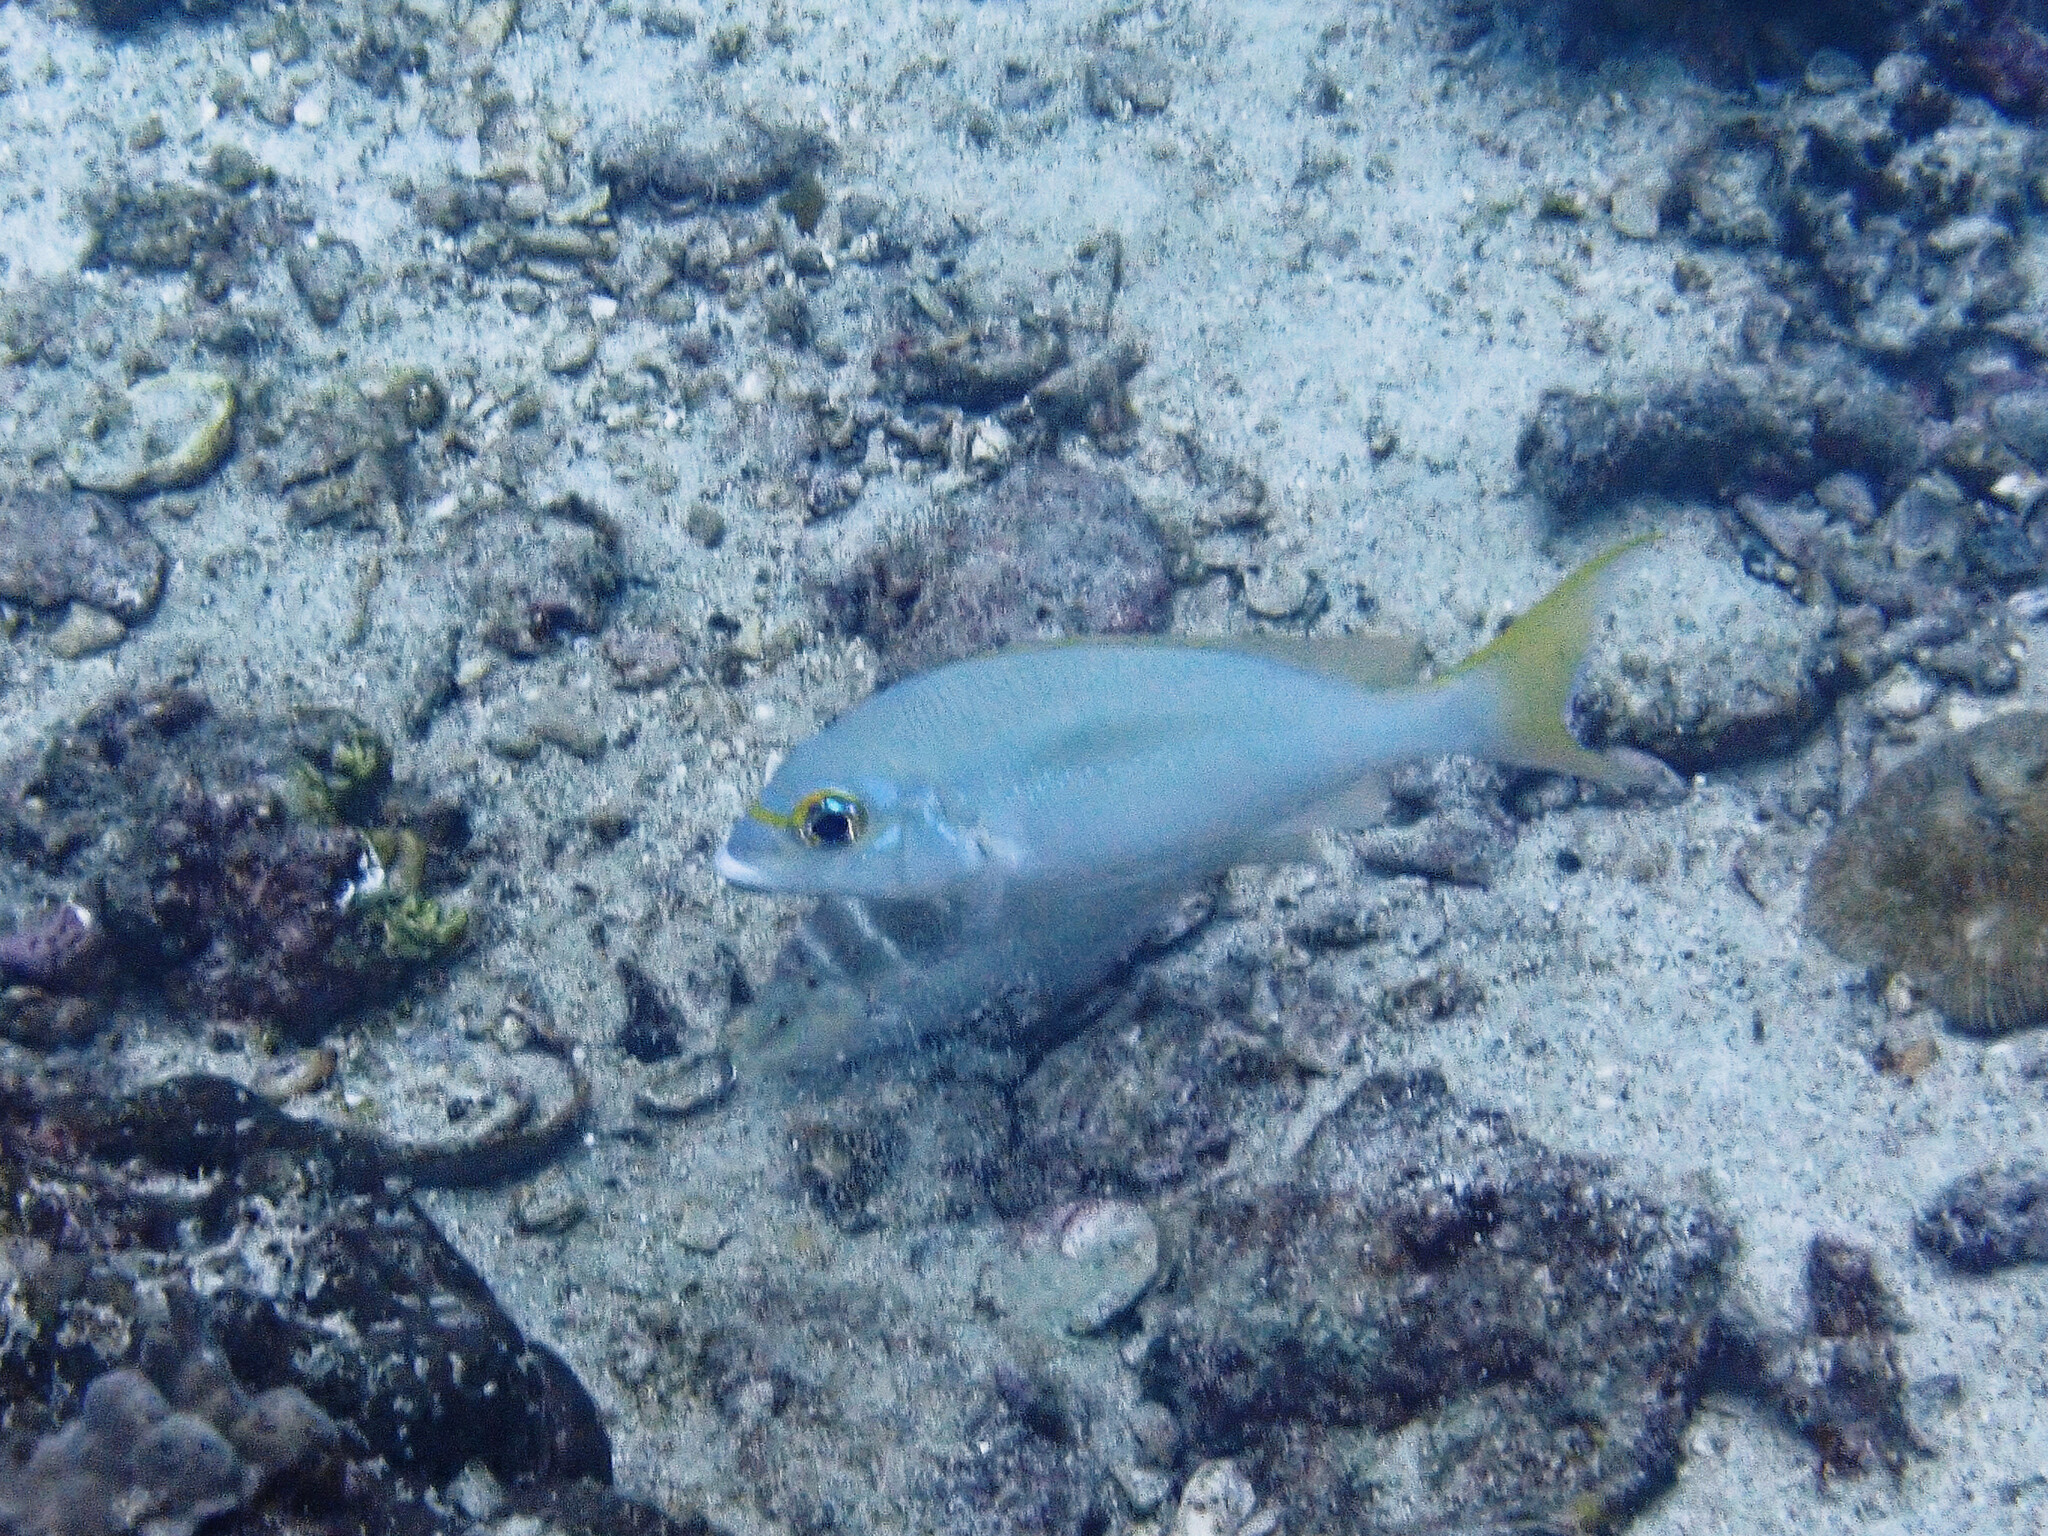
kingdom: Animalia
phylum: Chordata
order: Perciformes
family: Nemipteridae
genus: Scolopsis
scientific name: Scolopsis monogramma
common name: Monogrammed monocle bream
